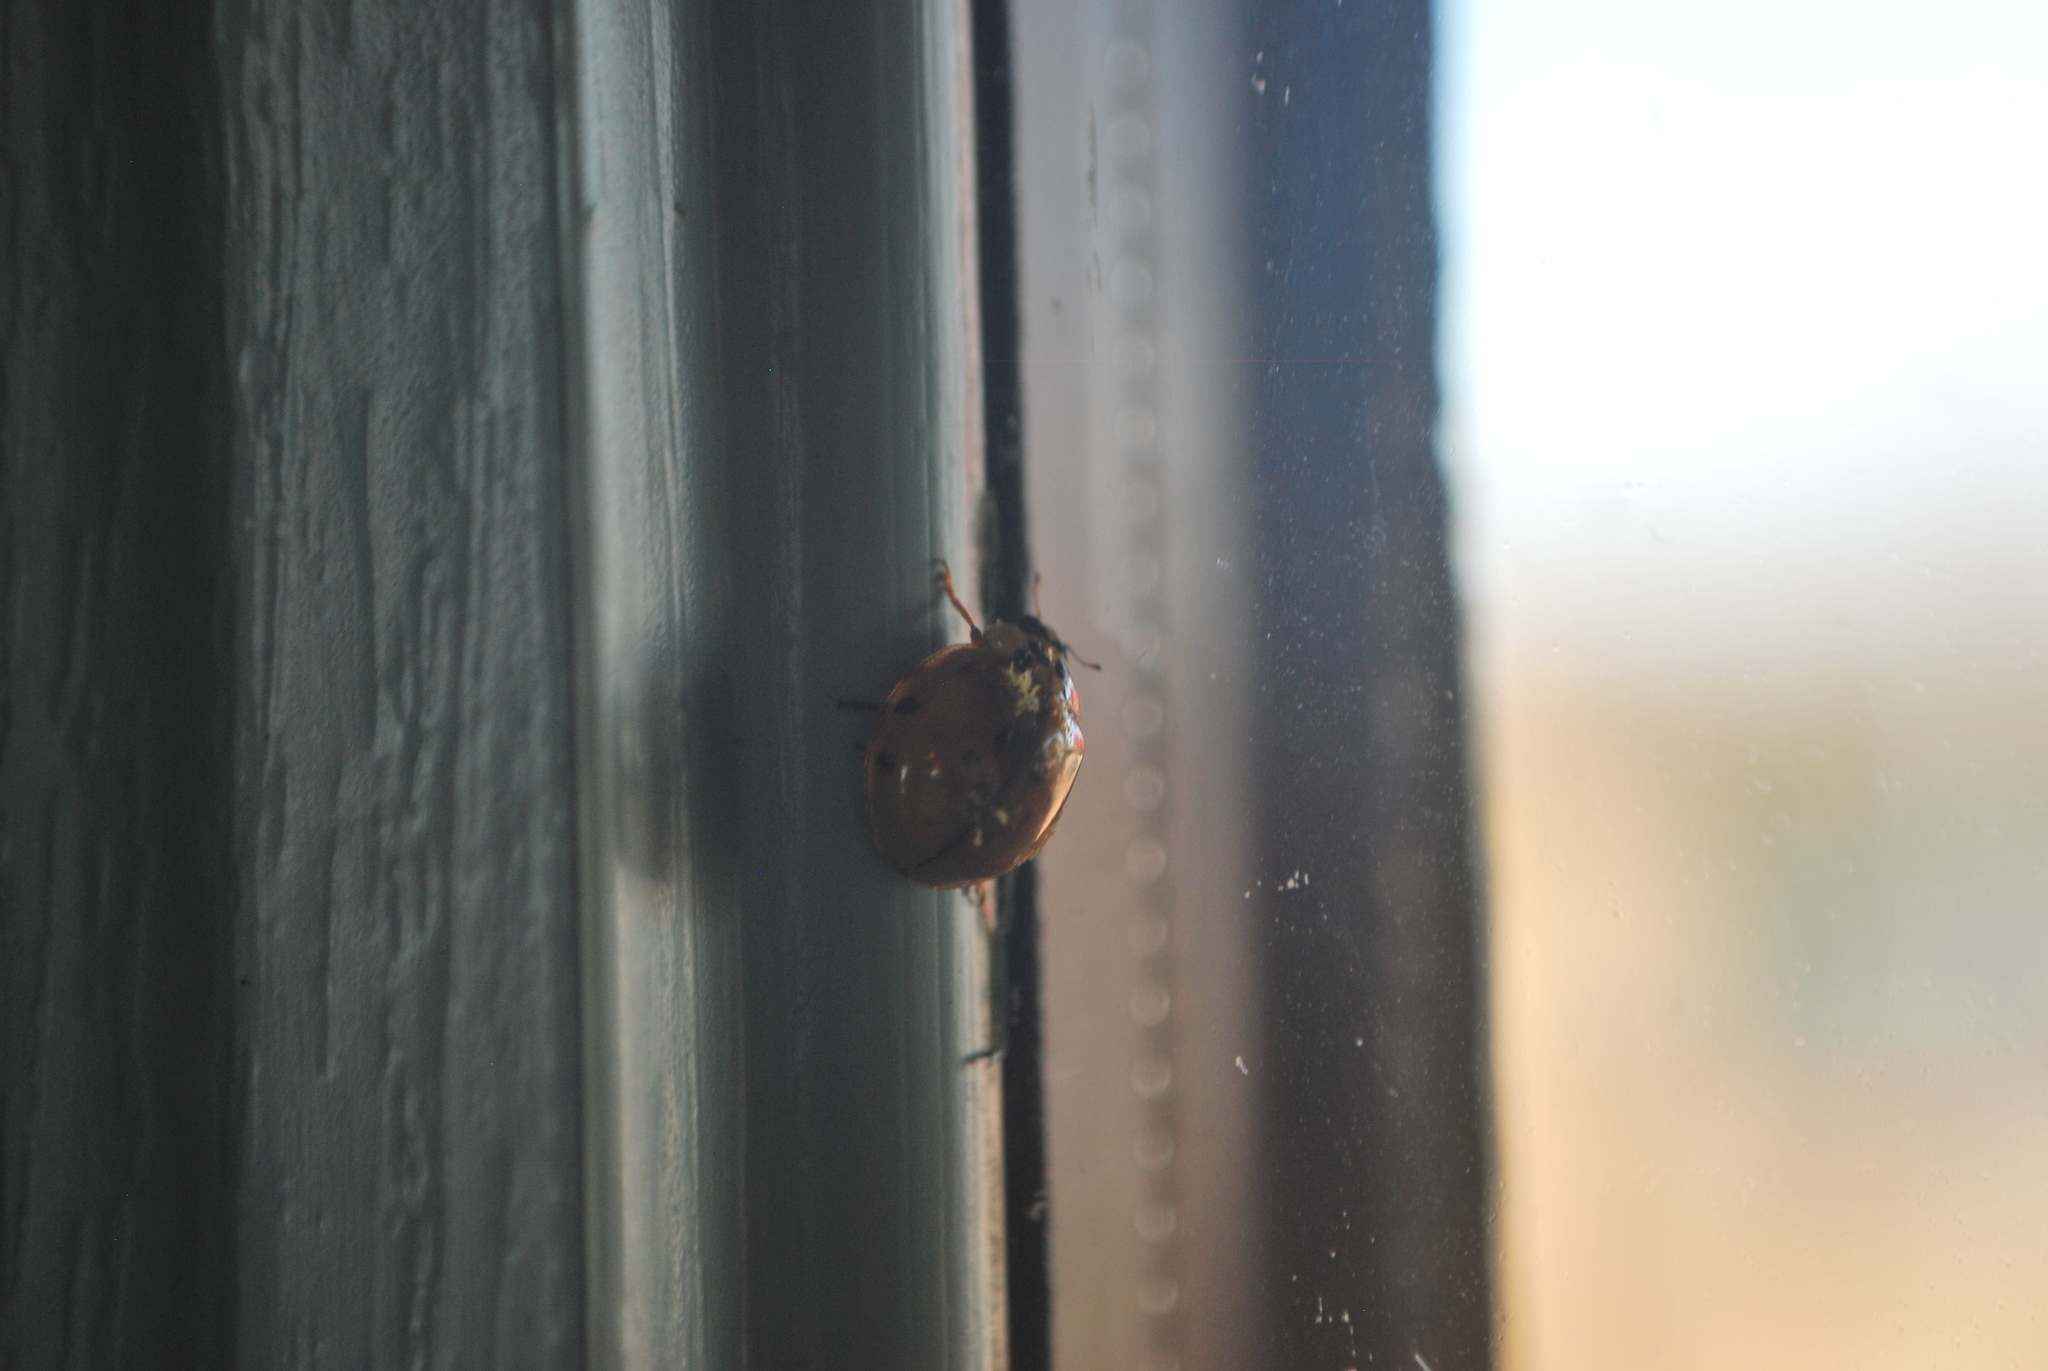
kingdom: Fungi
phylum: Ascomycota
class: Laboulbeniomycetes
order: Laboulbeniales
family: Laboulbeniaceae
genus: Hesperomyces
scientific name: Hesperomyces harmoniae
